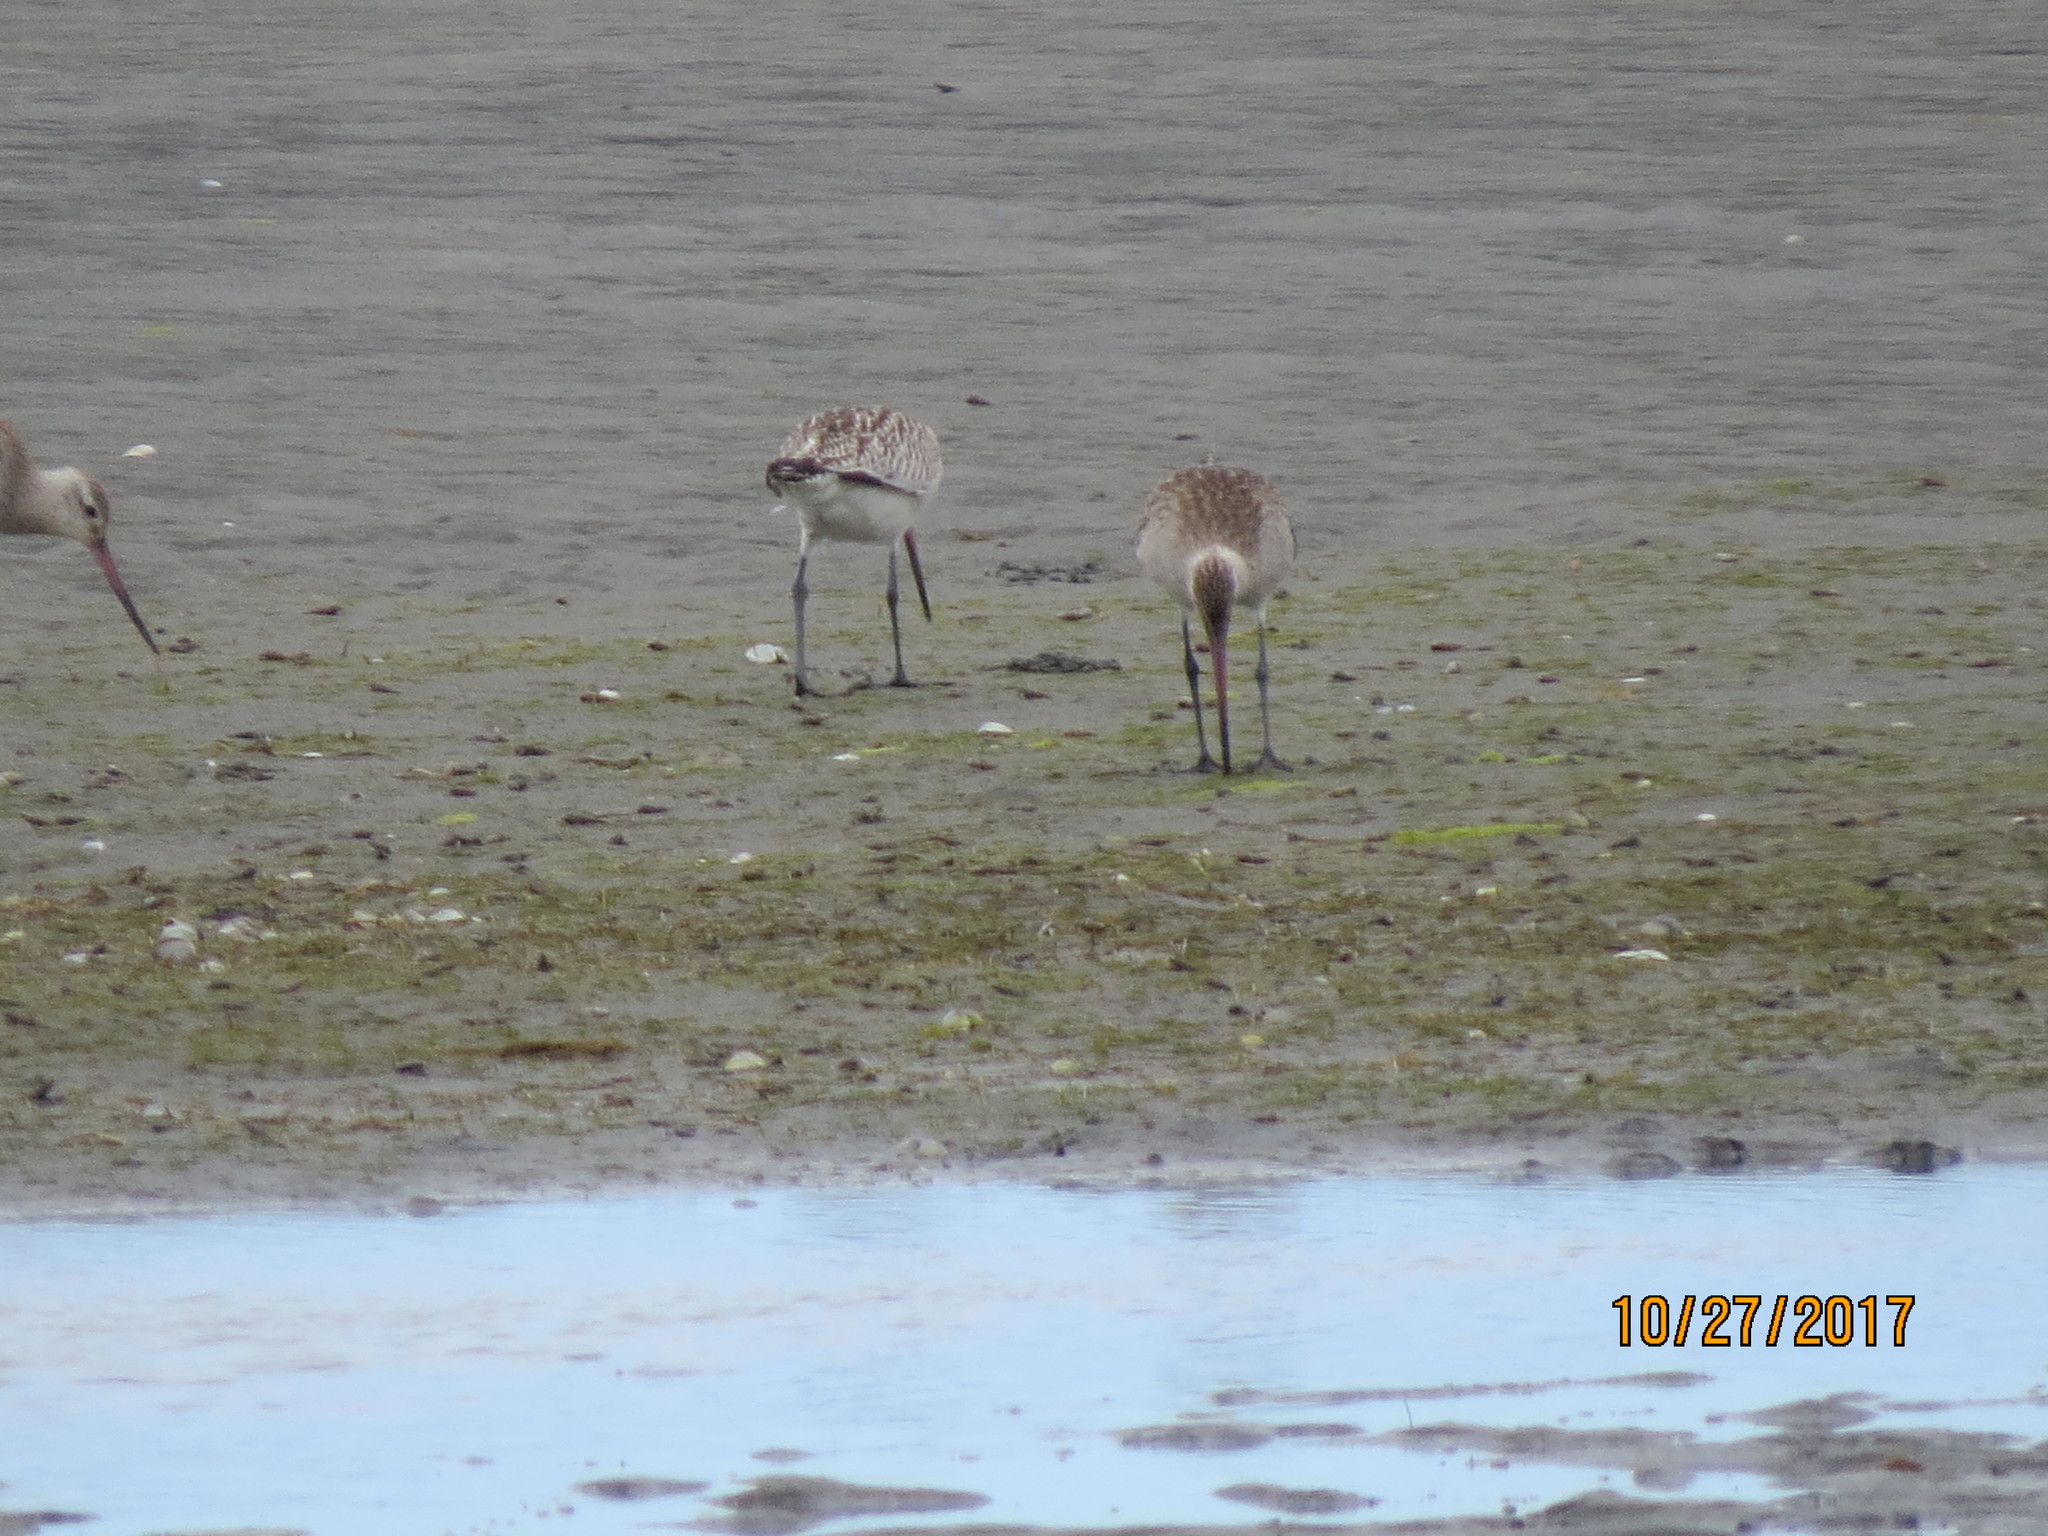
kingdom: Animalia
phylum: Chordata
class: Aves
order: Charadriiformes
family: Scolopacidae
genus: Limosa
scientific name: Limosa lapponica
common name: Bar-tailed godwit
